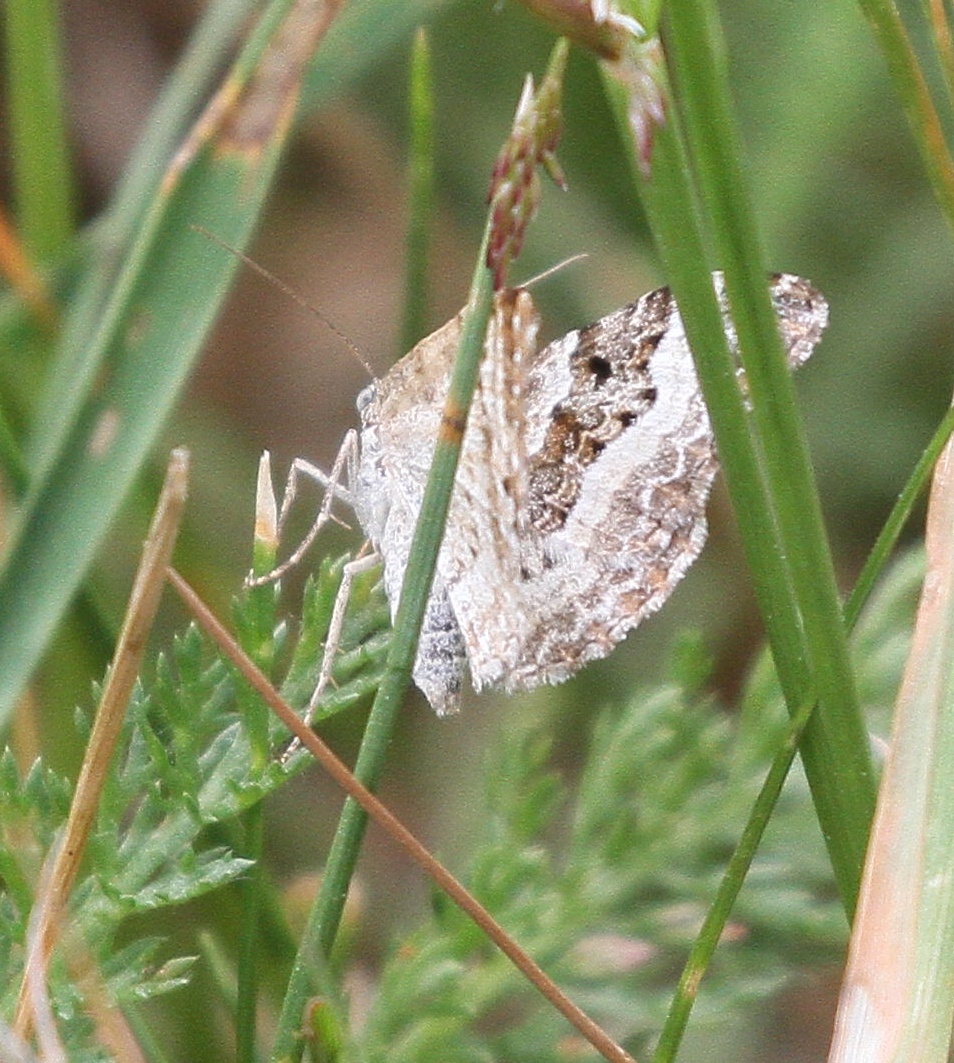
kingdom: Animalia
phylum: Arthropoda
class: Insecta
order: Lepidoptera
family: Geometridae
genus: Epirrhoe
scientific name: Epirrhoe alternata
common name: Common carpet
